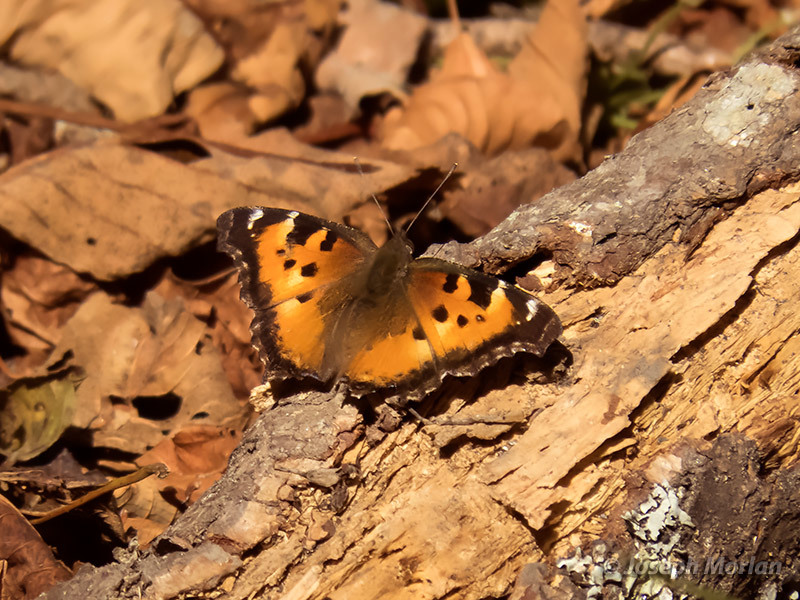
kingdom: Animalia
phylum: Arthropoda
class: Insecta
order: Lepidoptera
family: Nymphalidae
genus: Nymphalis
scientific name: Nymphalis californica
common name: California tortoiseshell
